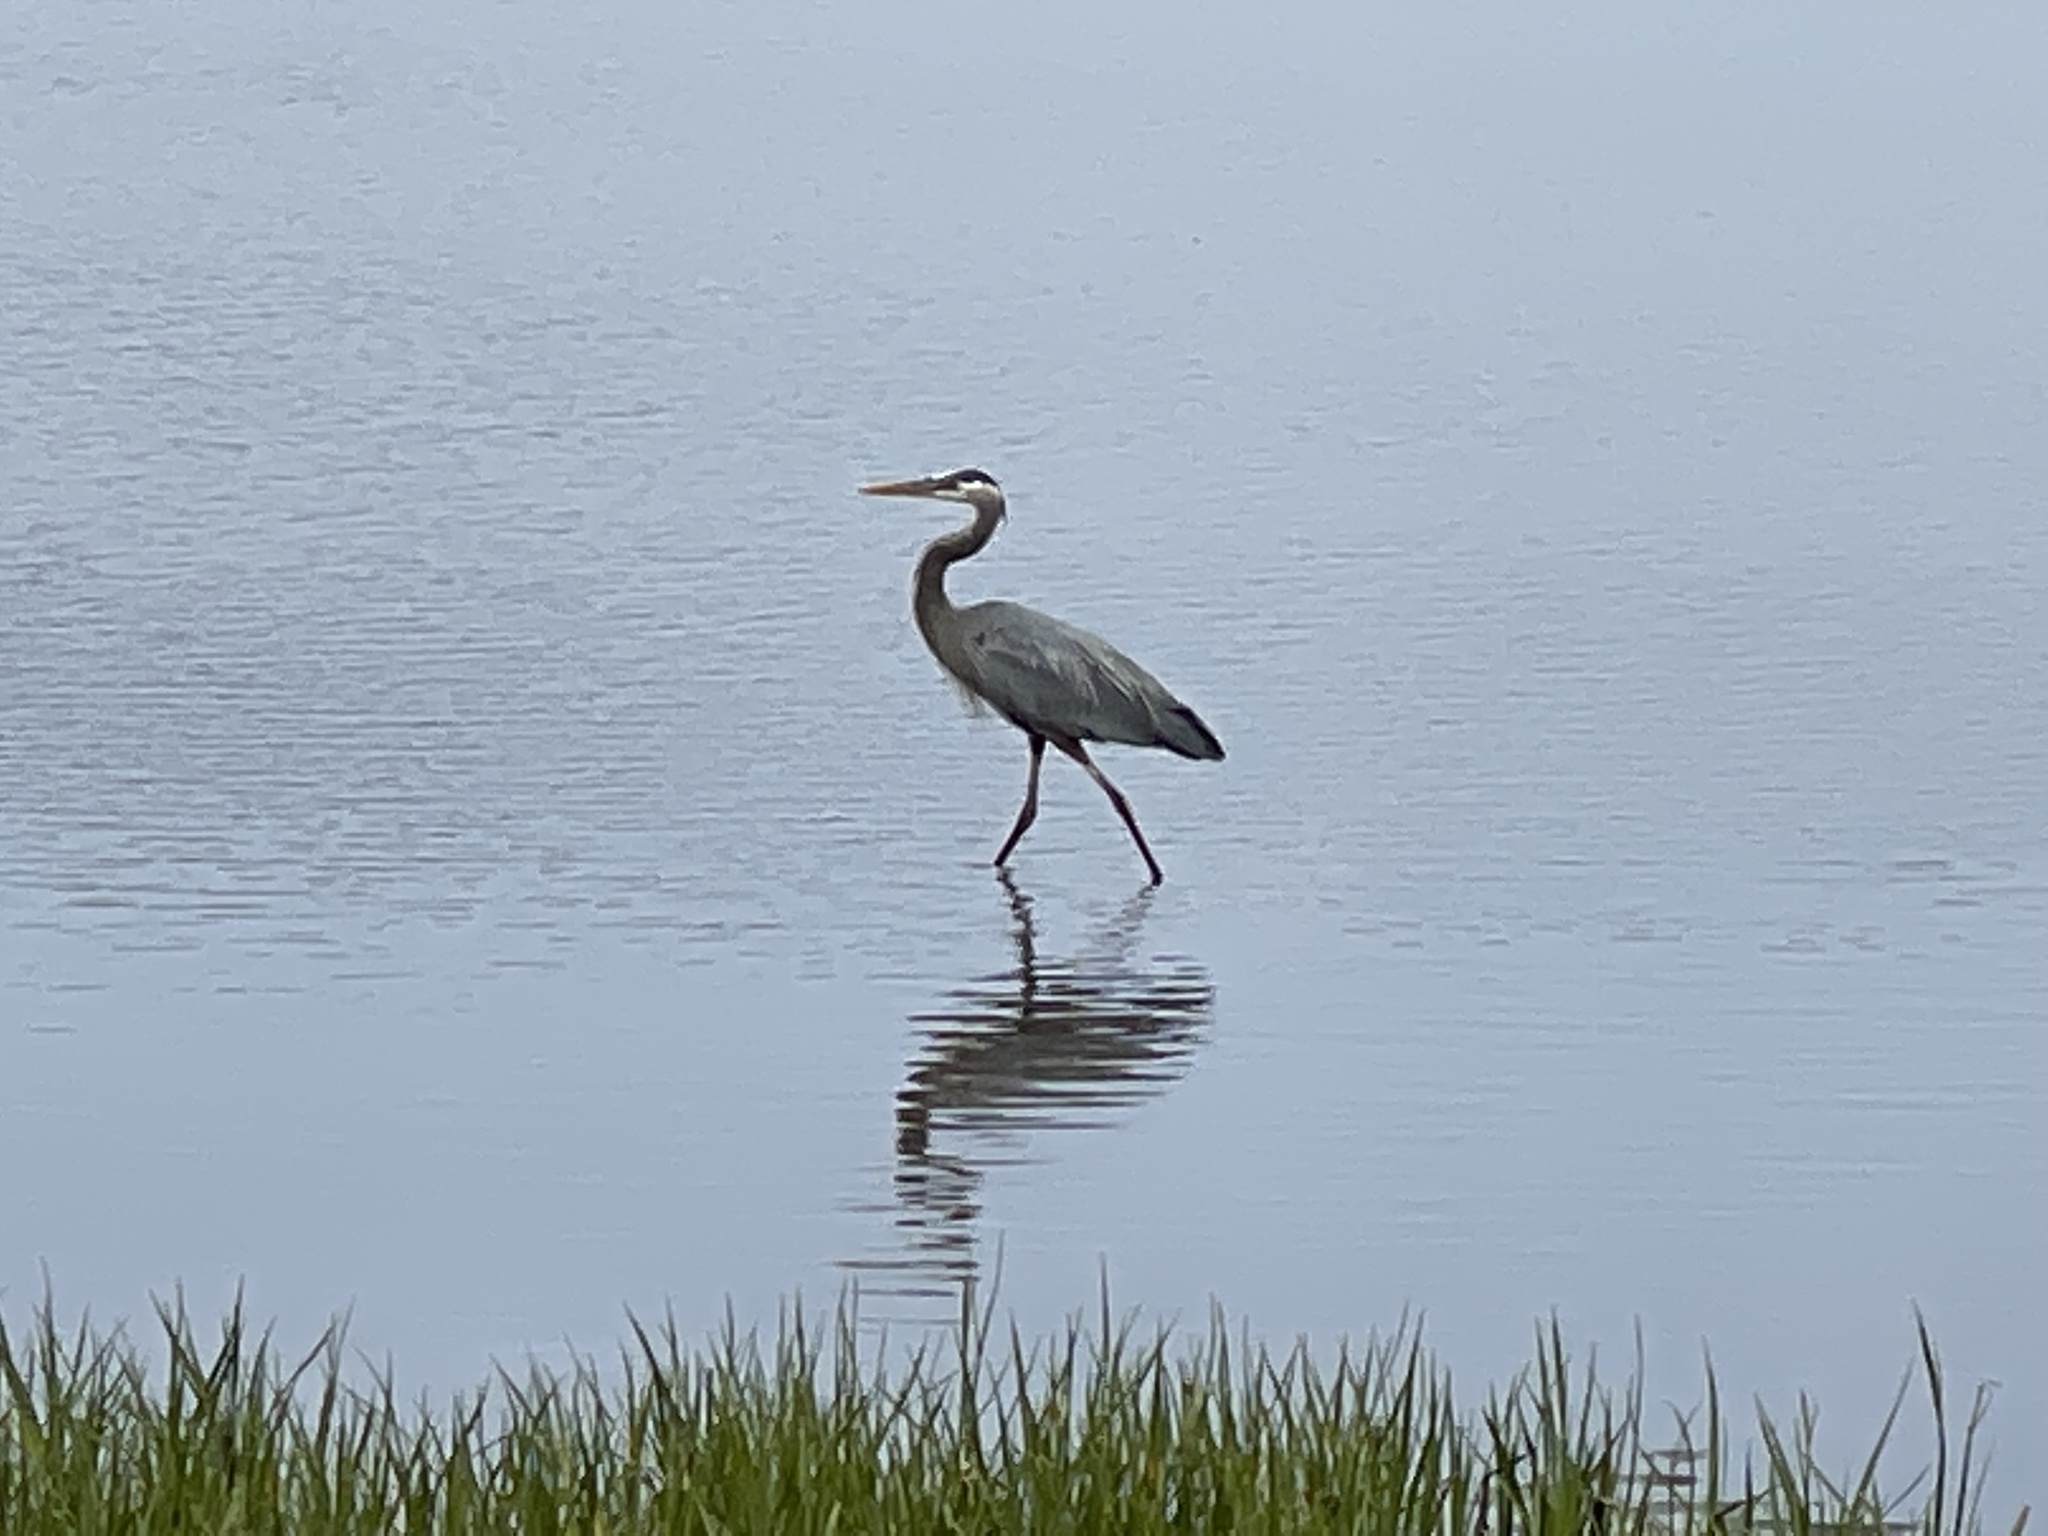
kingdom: Animalia
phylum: Chordata
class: Aves
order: Pelecaniformes
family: Ardeidae
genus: Ardea
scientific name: Ardea herodias
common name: Great blue heron
